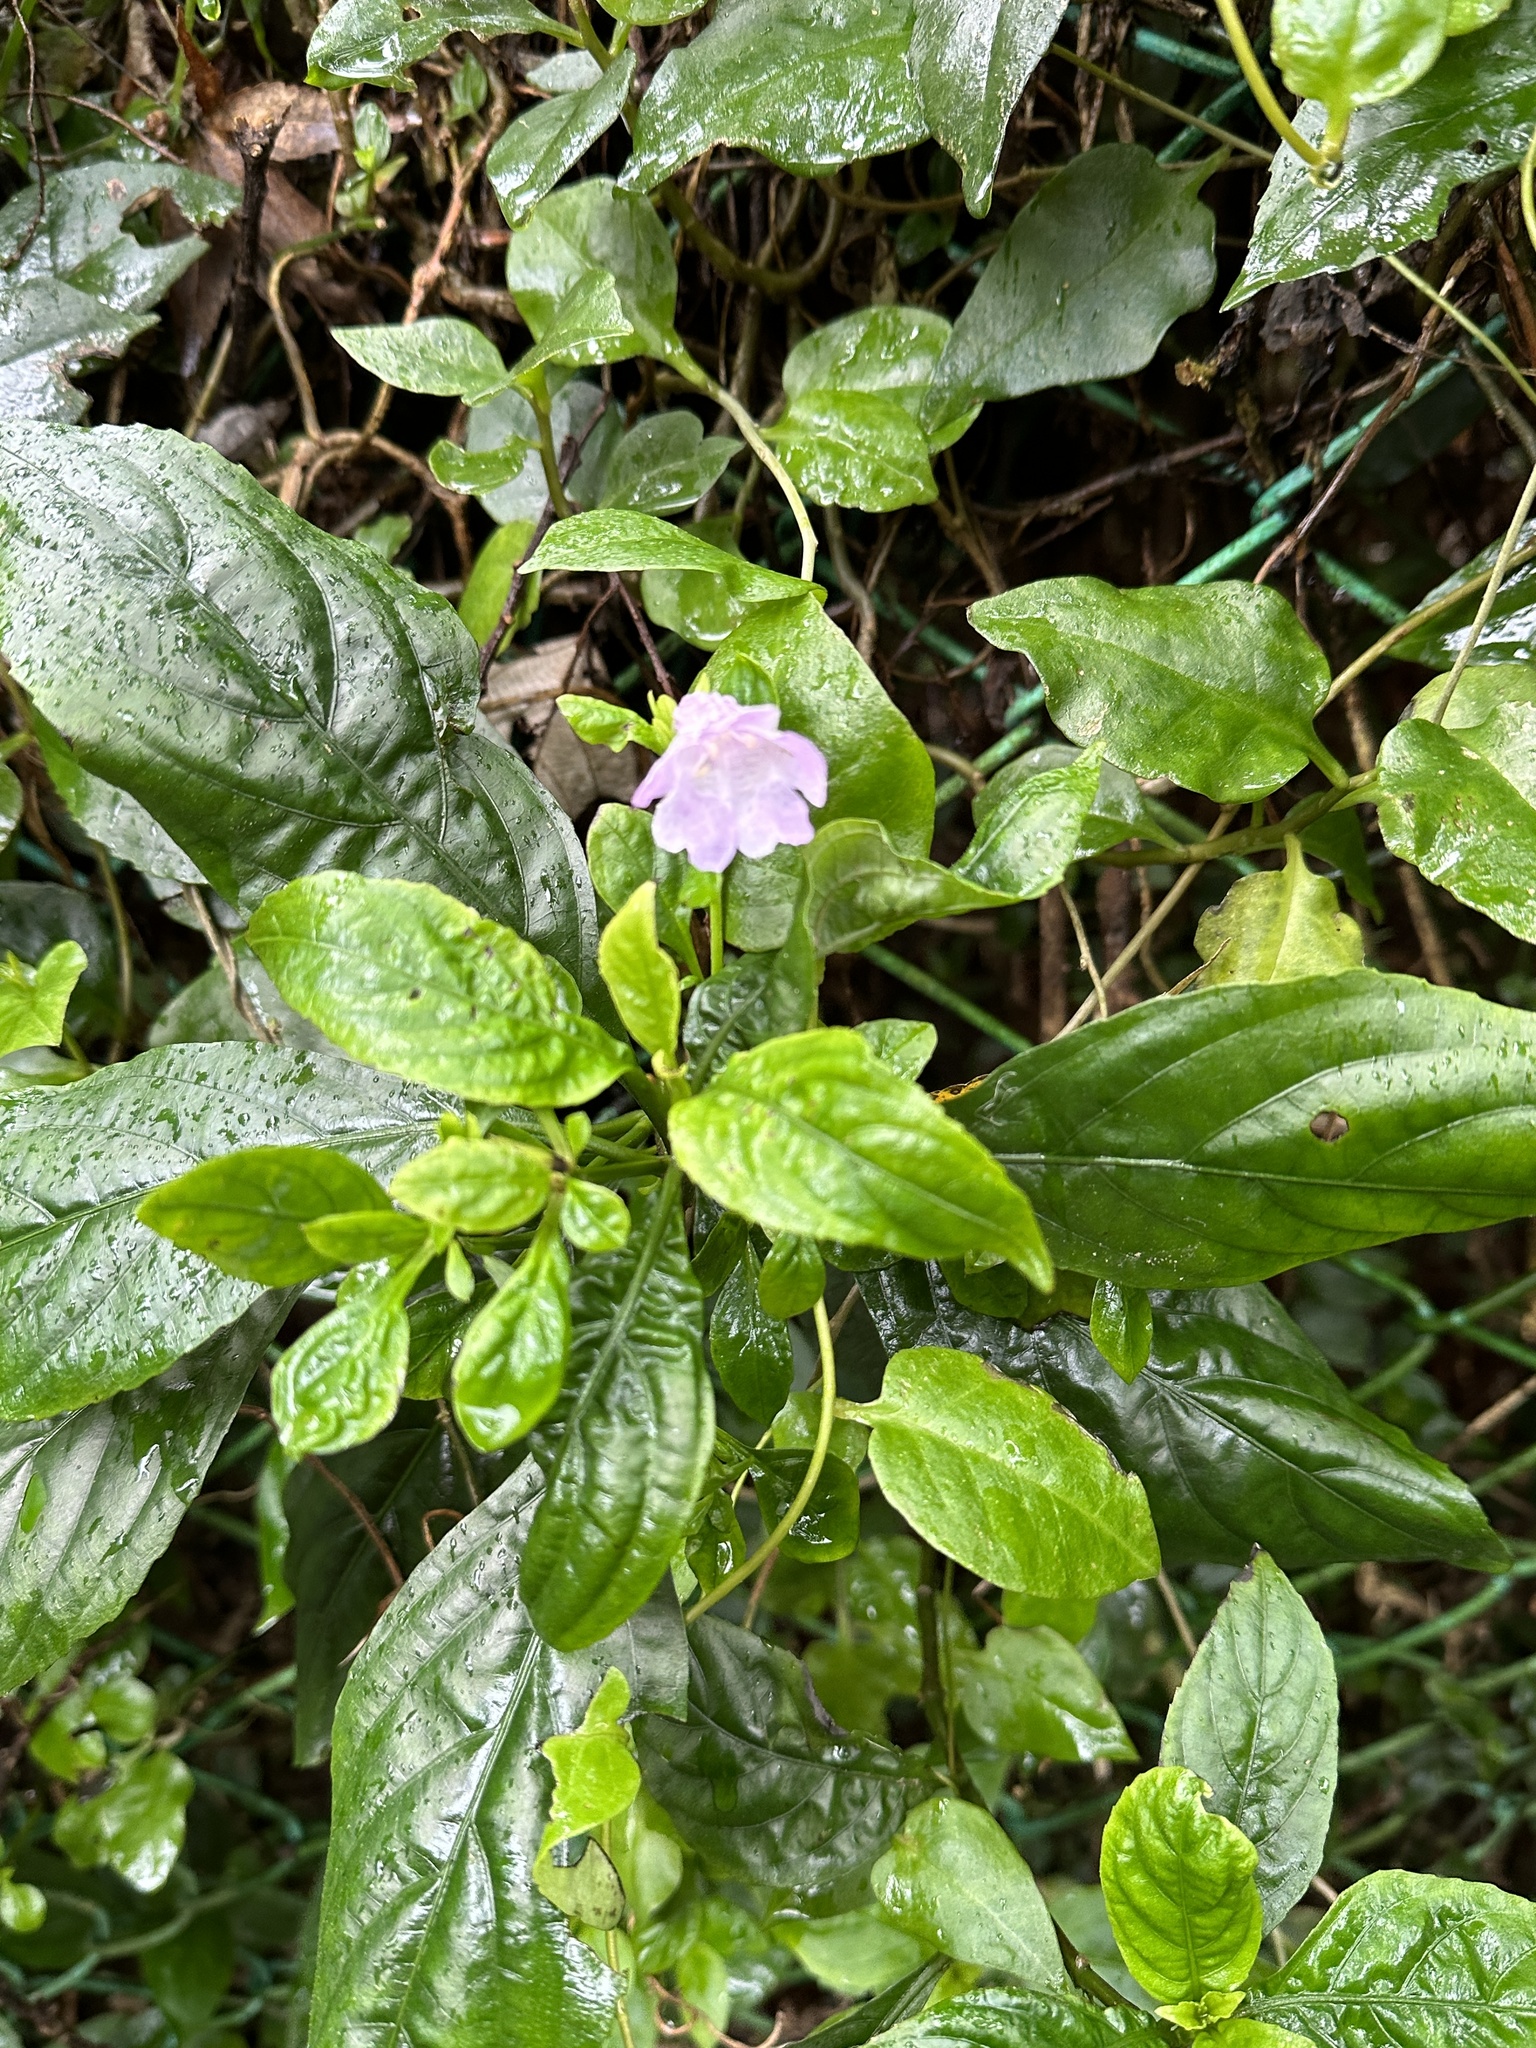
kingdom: Plantae
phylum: Tracheophyta
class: Magnoliopsida
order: Lamiales
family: Acanthaceae
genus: Strobilanthes
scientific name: Strobilanthes cusia
